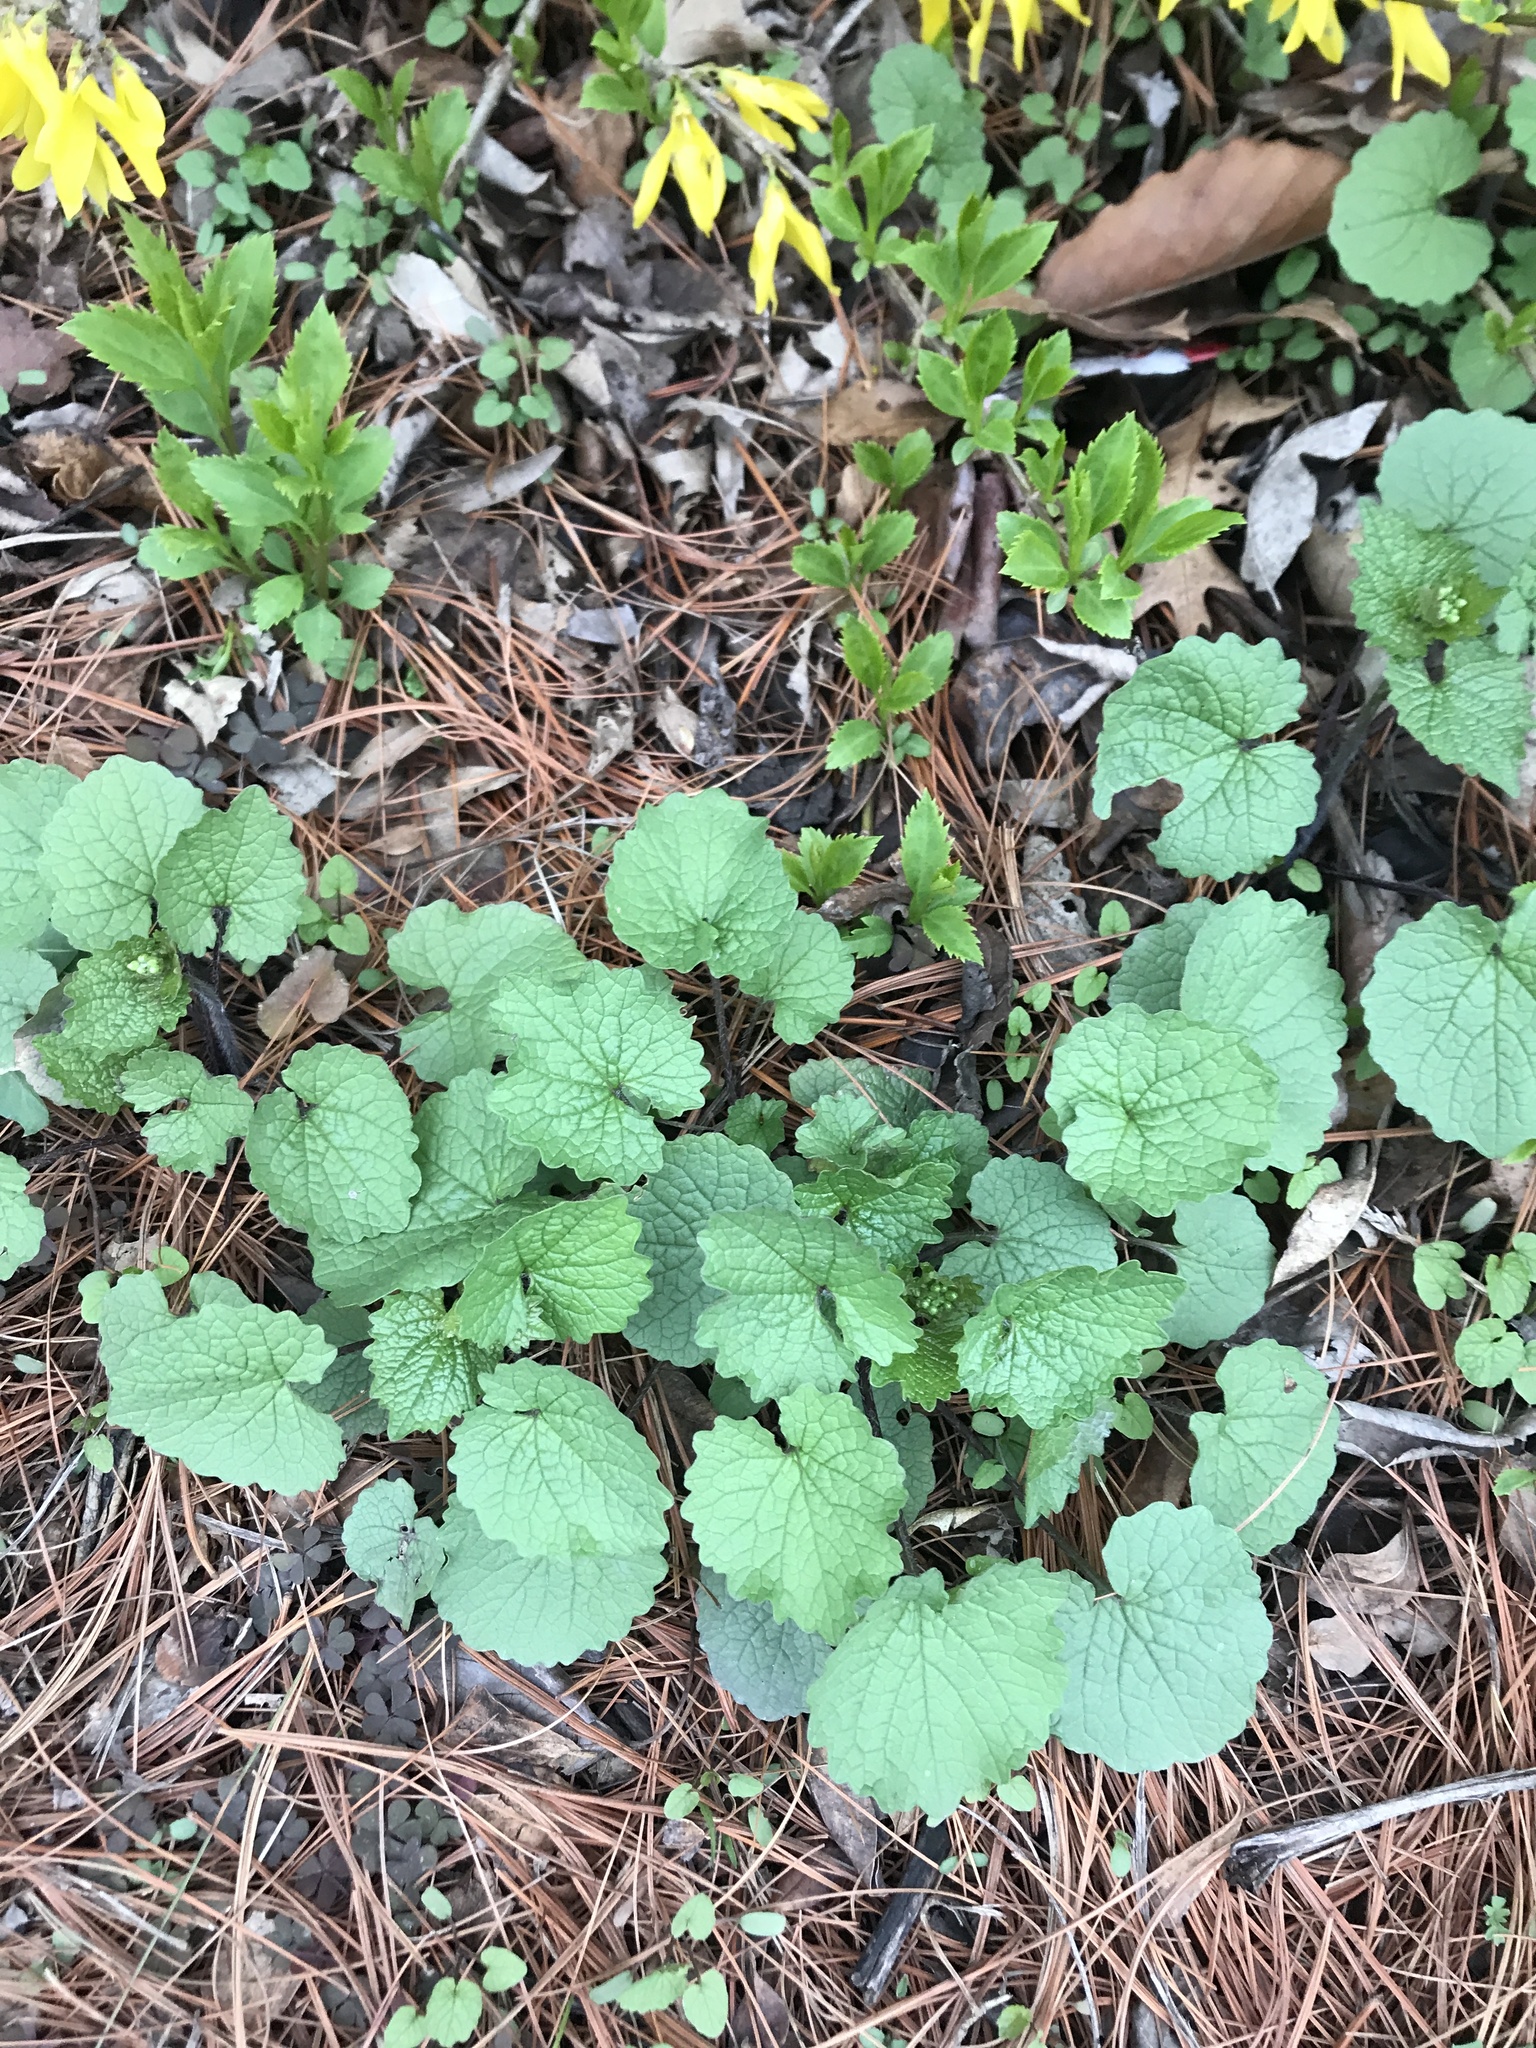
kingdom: Plantae
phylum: Tracheophyta
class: Magnoliopsida
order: Brassicales
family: Brassicaceae
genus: Alliaria
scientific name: Alliaria petiolata
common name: Garlic mustard
